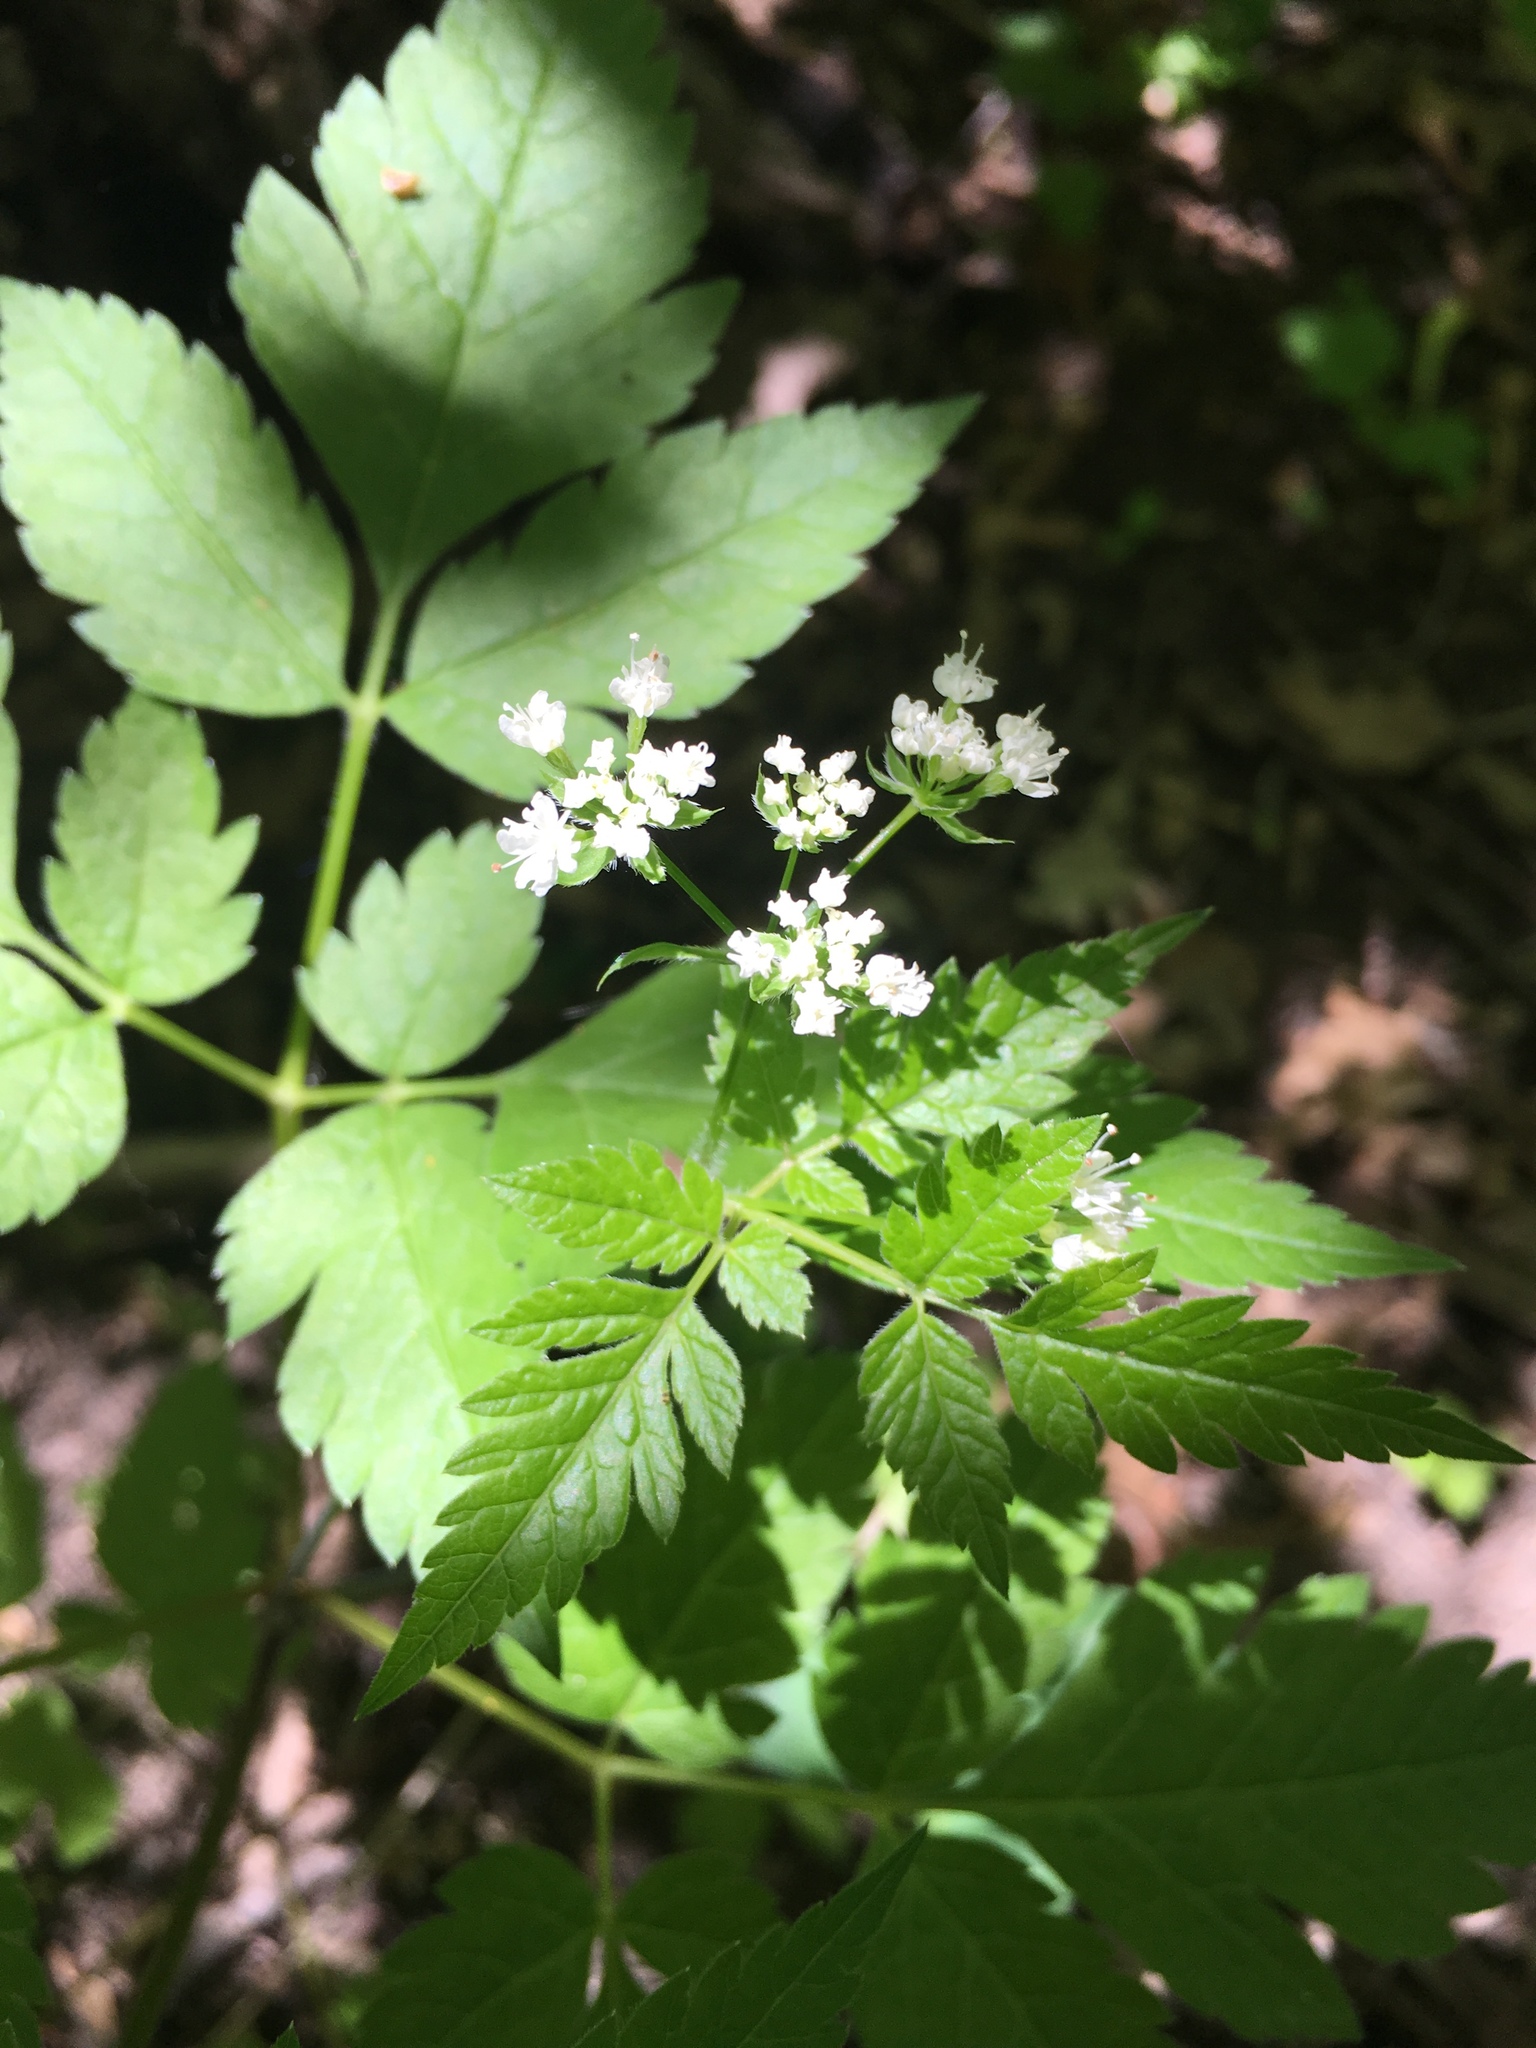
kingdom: Plantae
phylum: Tracheophyta
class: Magnoliopsida
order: Apiales
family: Apiaceae
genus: Osmorhiza
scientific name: Osmorhiza longistylis
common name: Smooth sweet cicely
